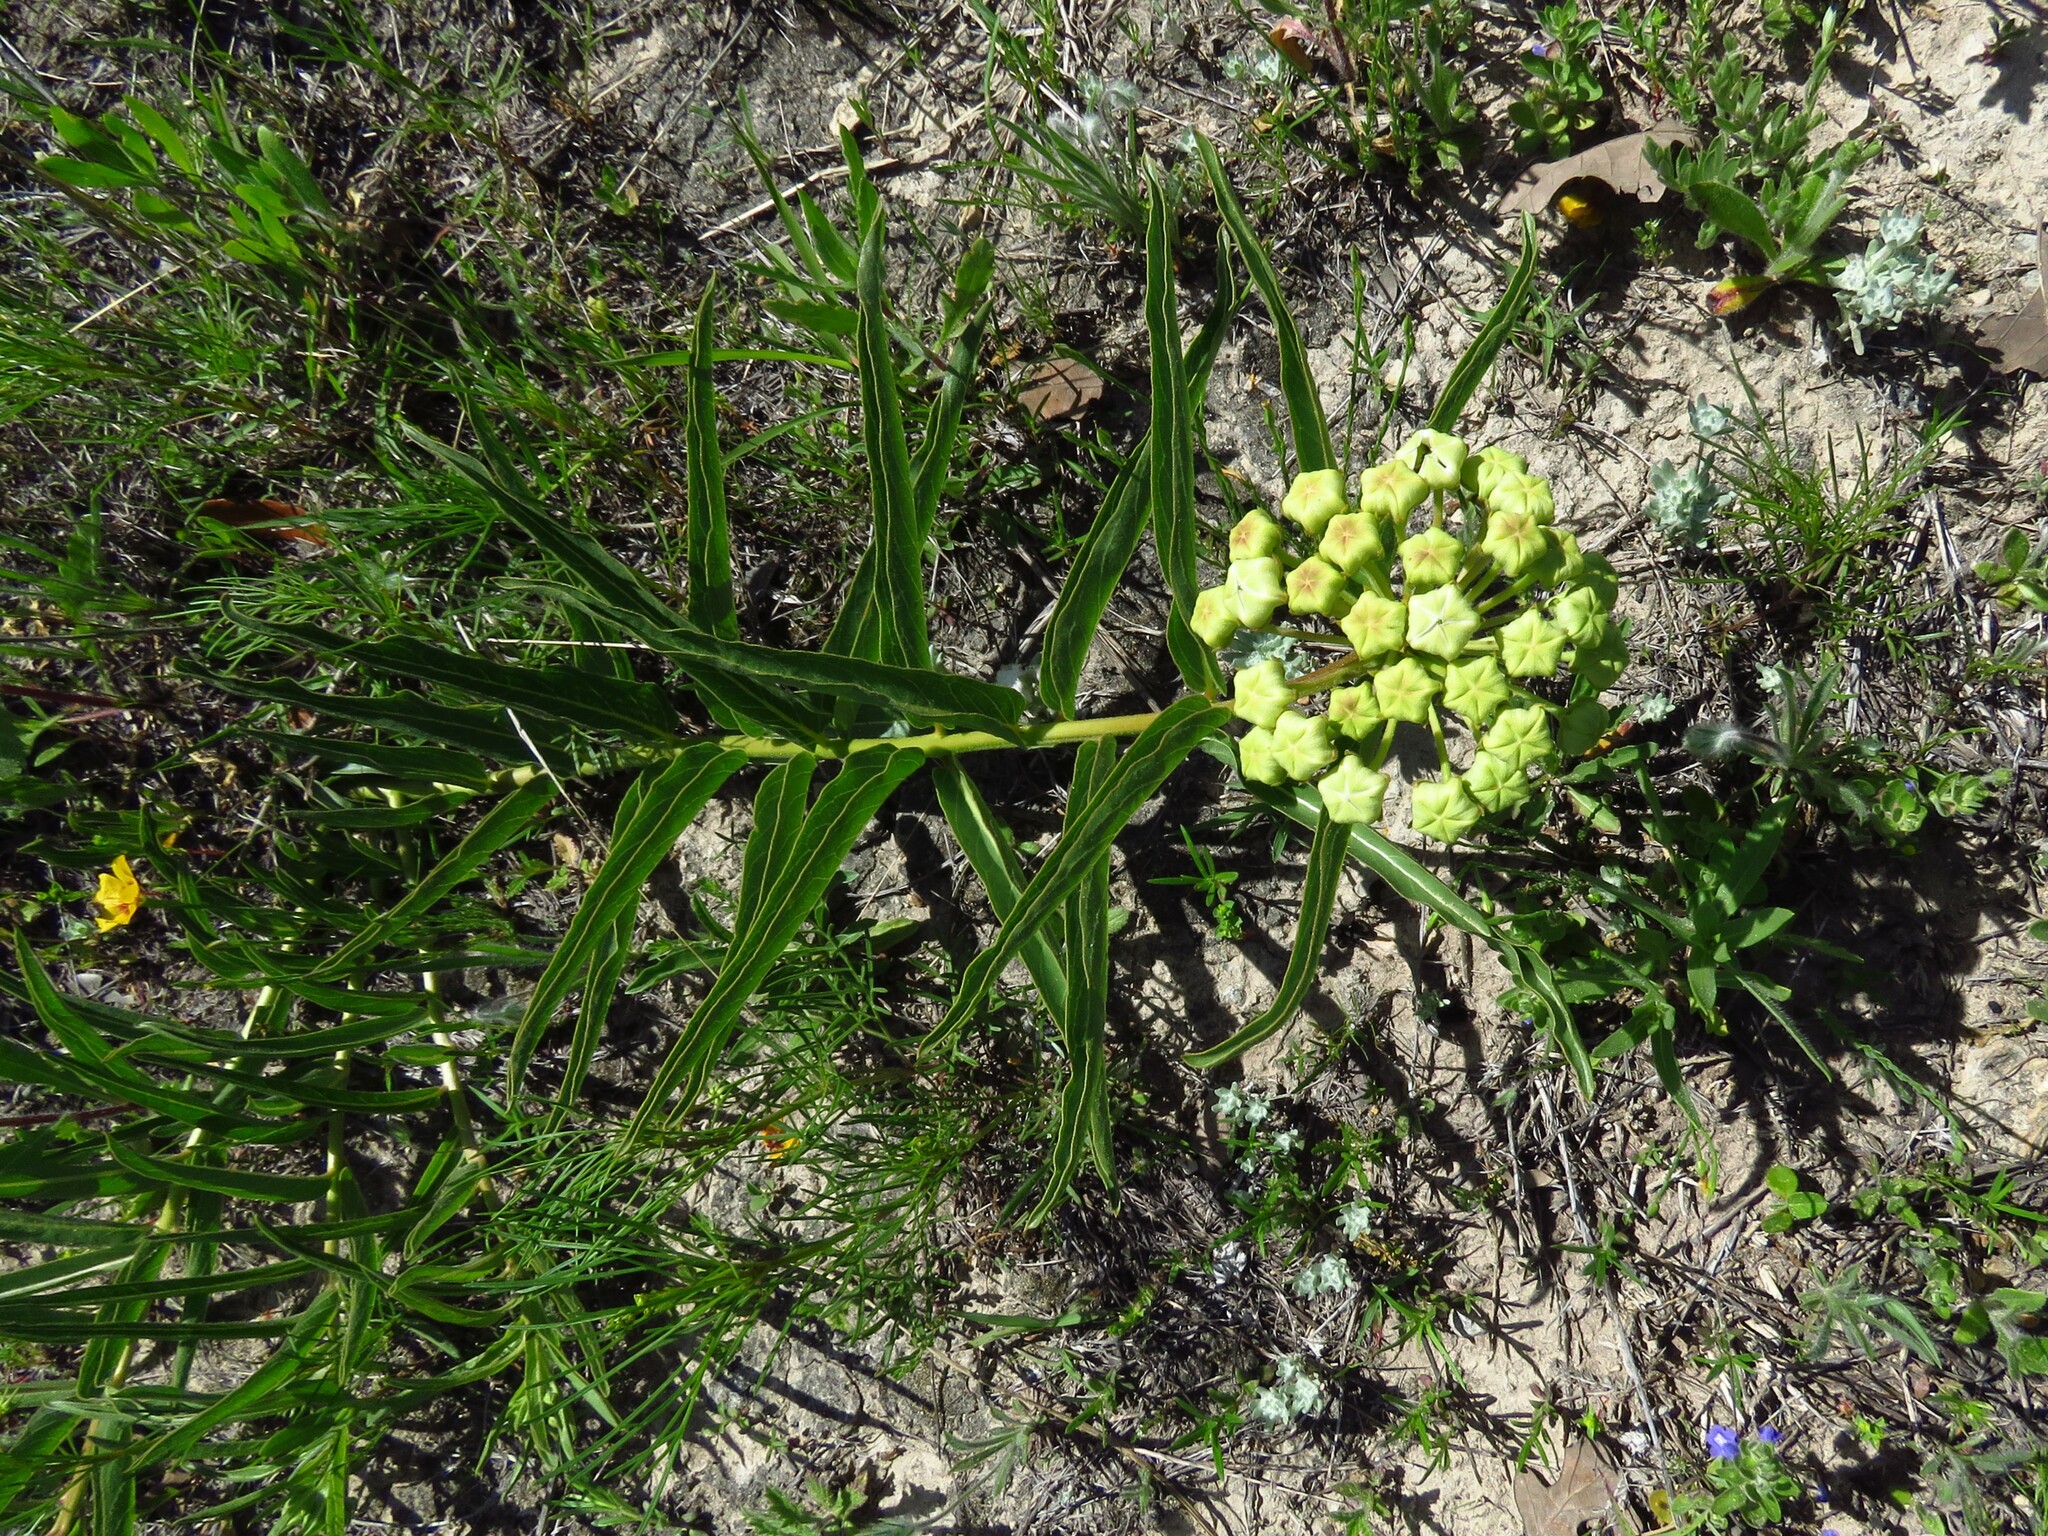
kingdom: Plantae
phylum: Tracheophyta
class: Magnoliopsida
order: Gentianales
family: Apocynaceae
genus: Asclepias
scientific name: Asclepias asperula
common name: Antelope horns
